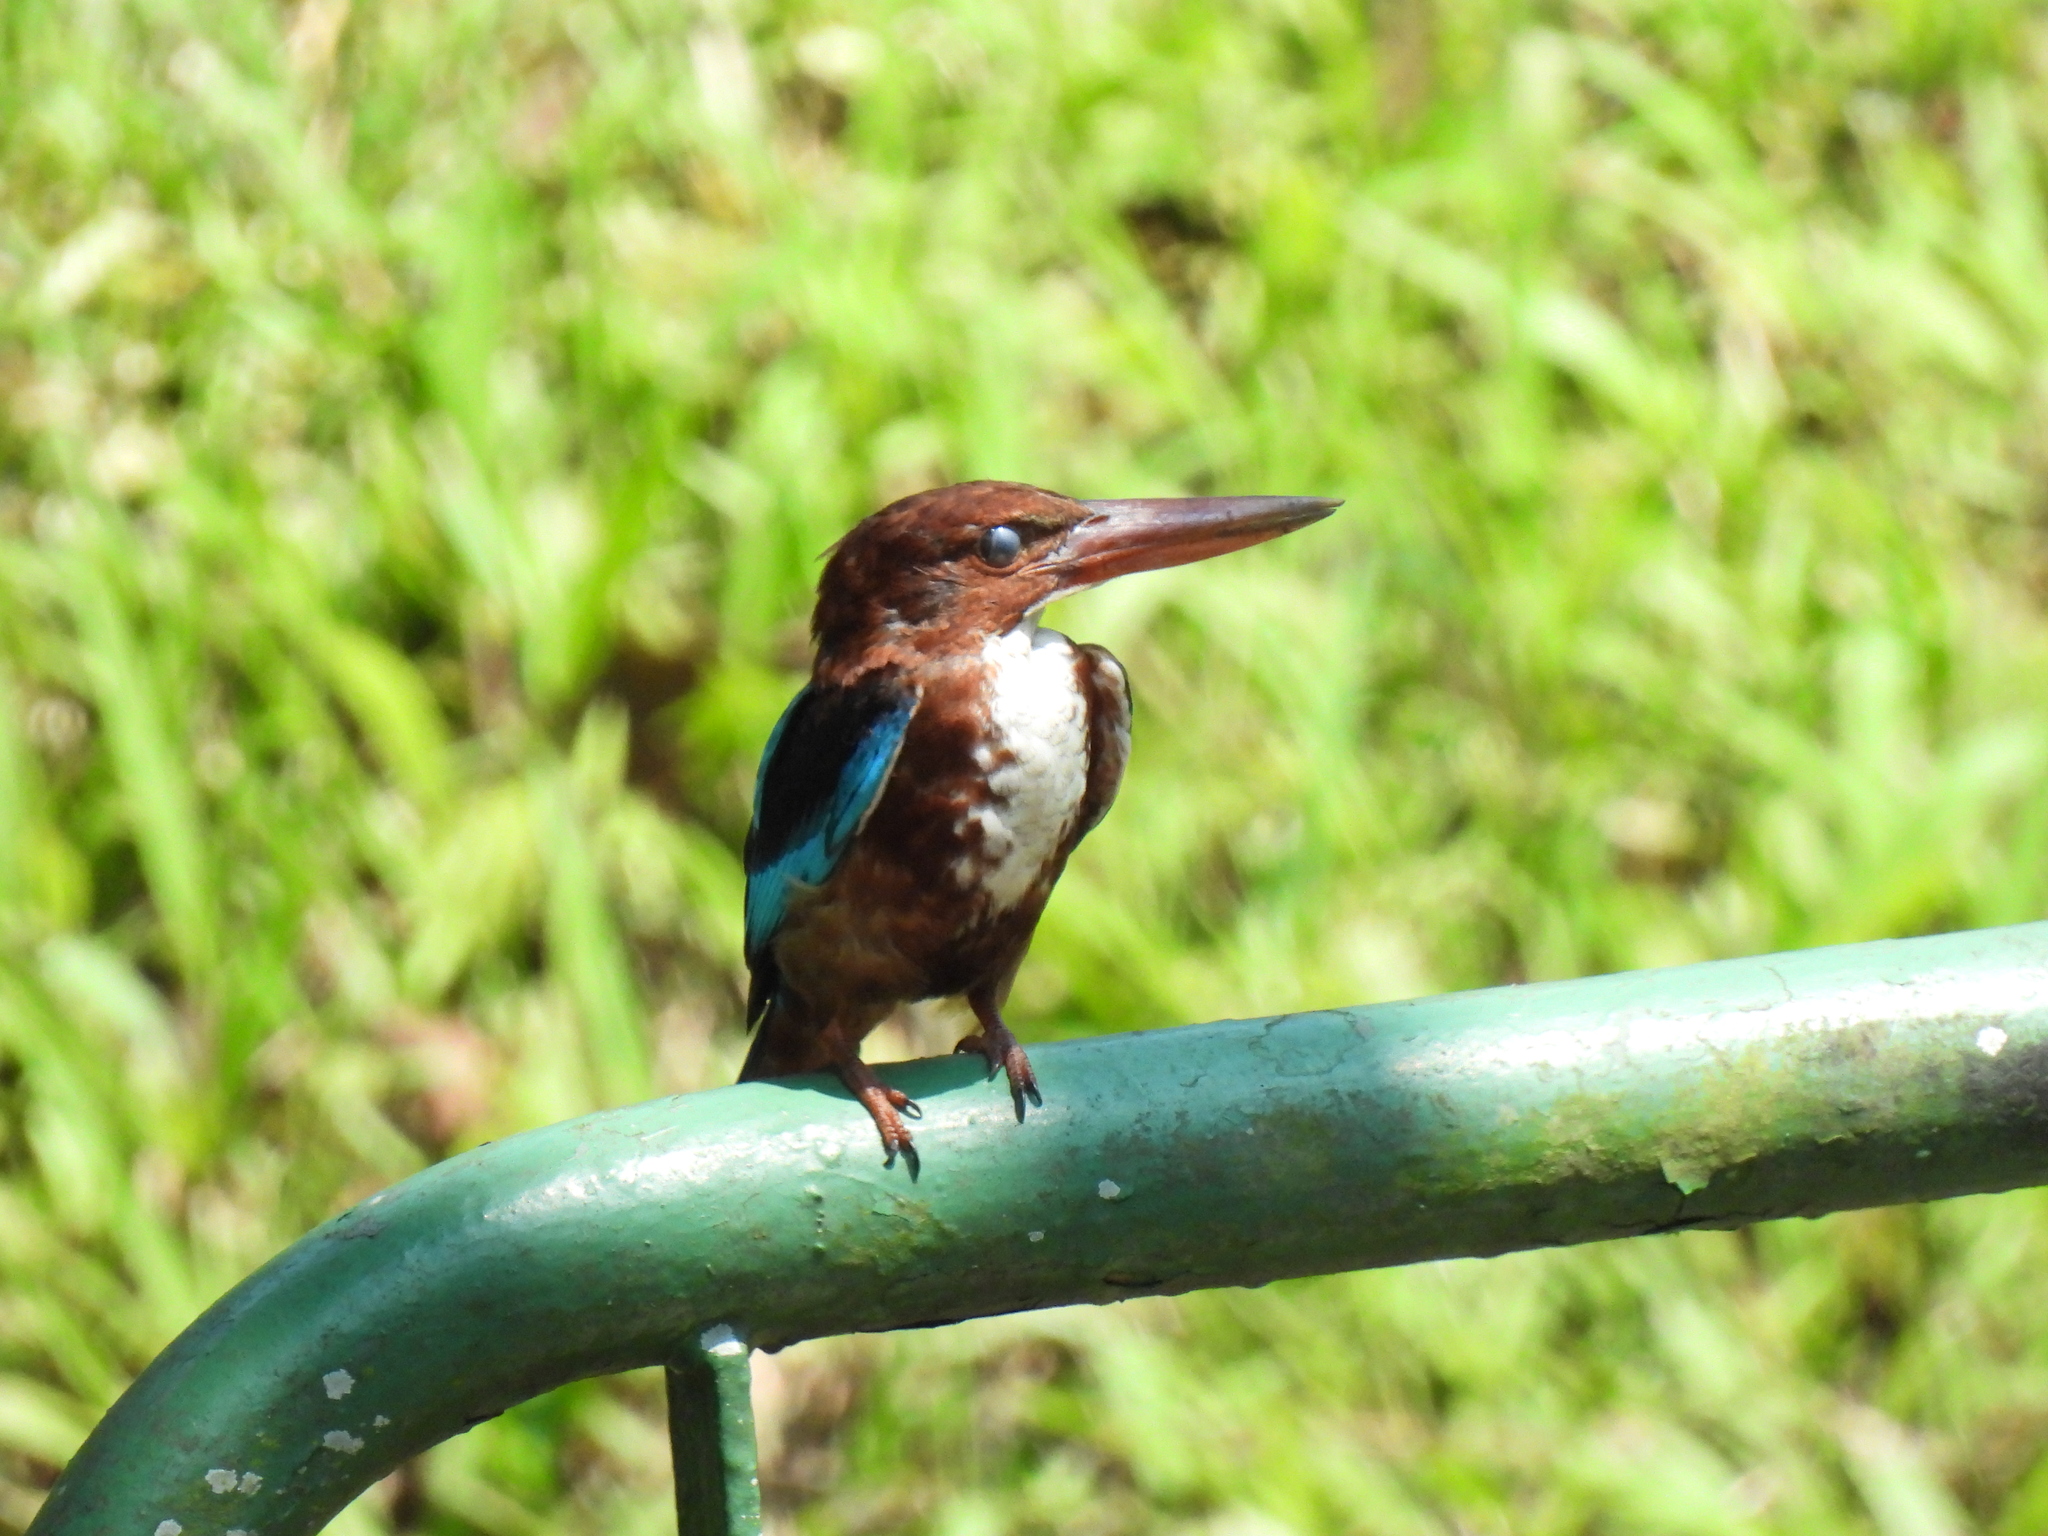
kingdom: Animalia
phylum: Chordata
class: Aves
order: Coraciiformes
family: Alcedinidae
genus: Halcyon
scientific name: Halcyon smyrnensis
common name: White-throated kingfisher
